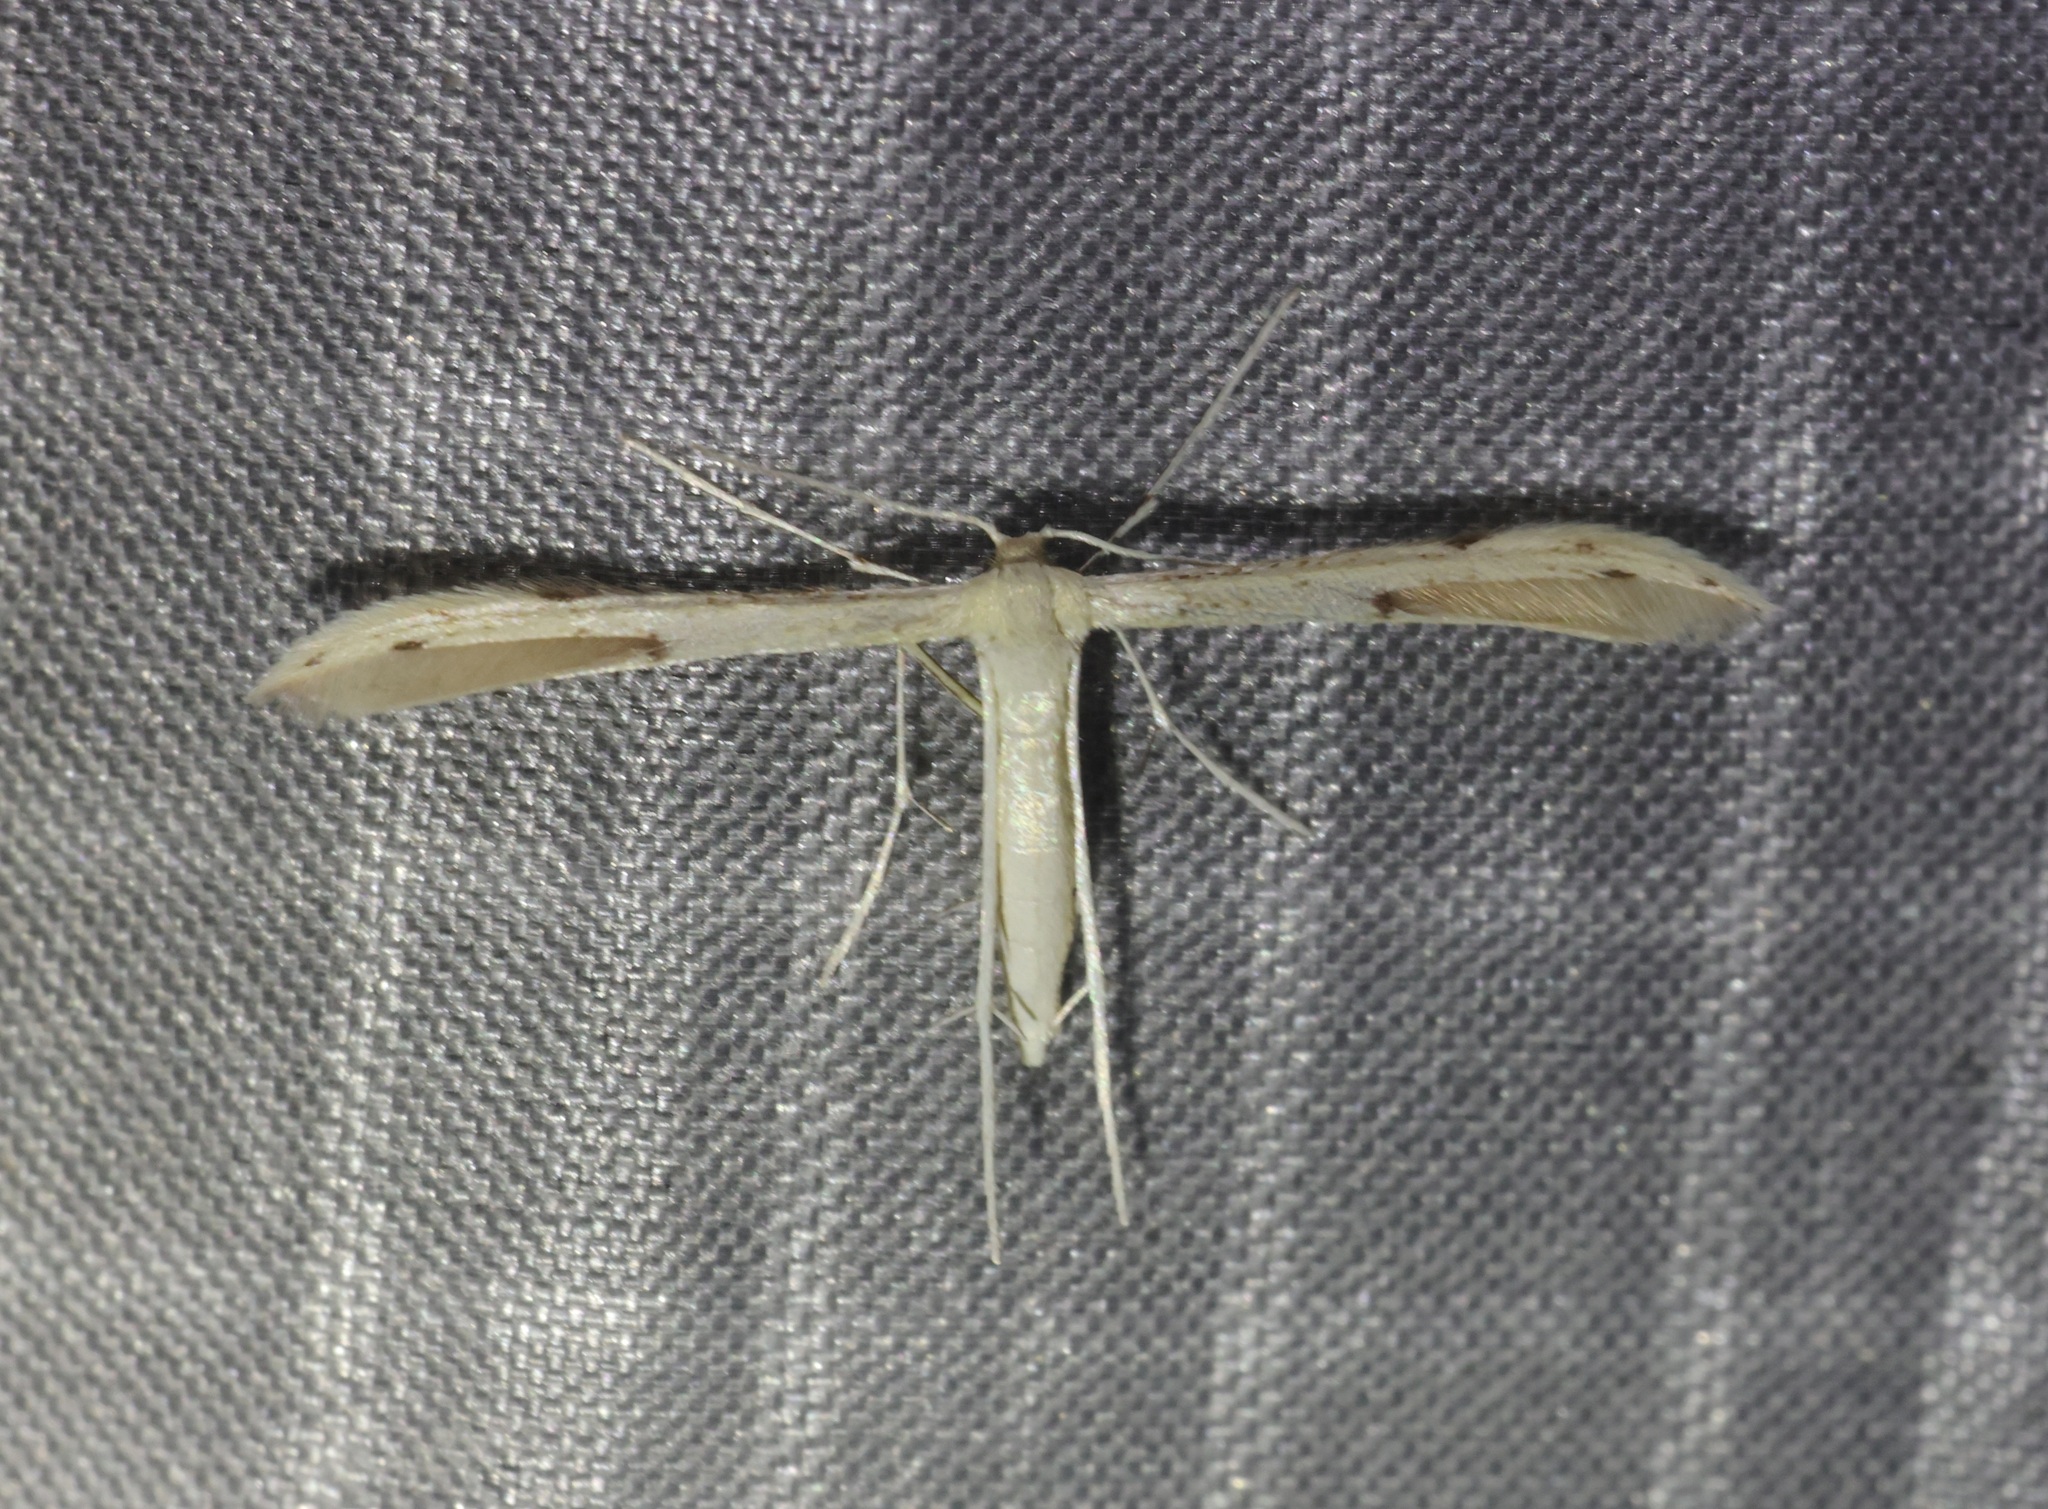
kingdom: Animalia
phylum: Arthropoda
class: Insecta
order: Lepidoptera
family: Pterophoridae
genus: Adaina
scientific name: Adaina microdactyla
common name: Hemp-agrimony plume
